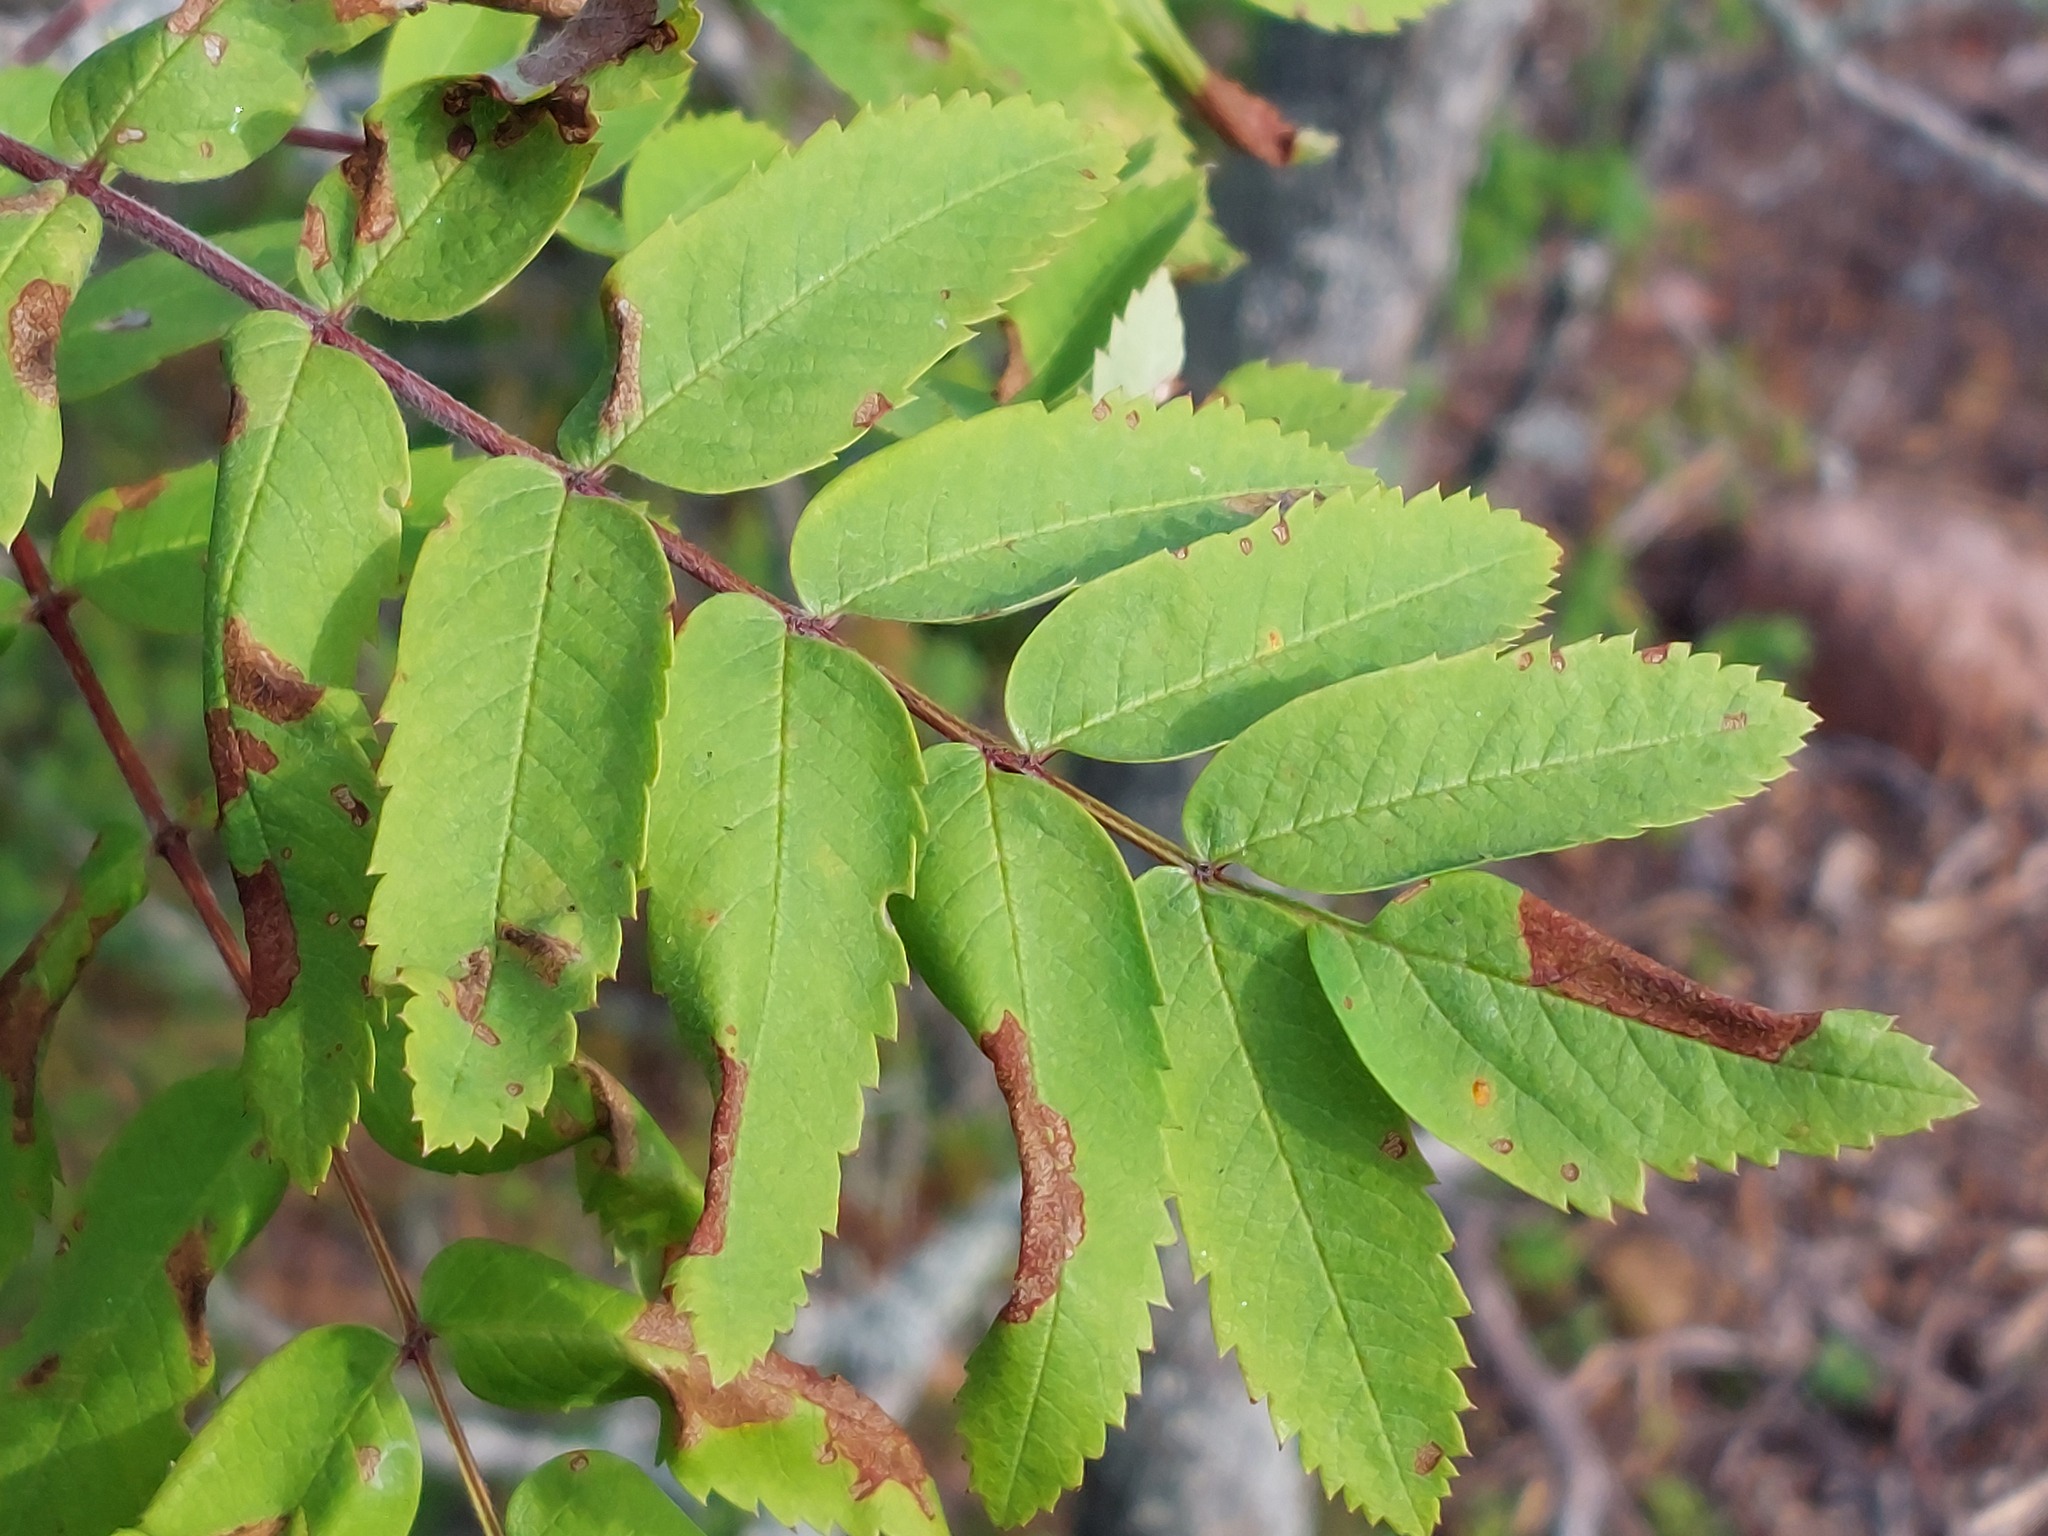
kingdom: Plantae
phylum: Tracheophyta
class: Magnoliopsida
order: Rosales
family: Rosaceae
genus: Sorbus
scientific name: Sorbus aucuparia
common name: Rowan
